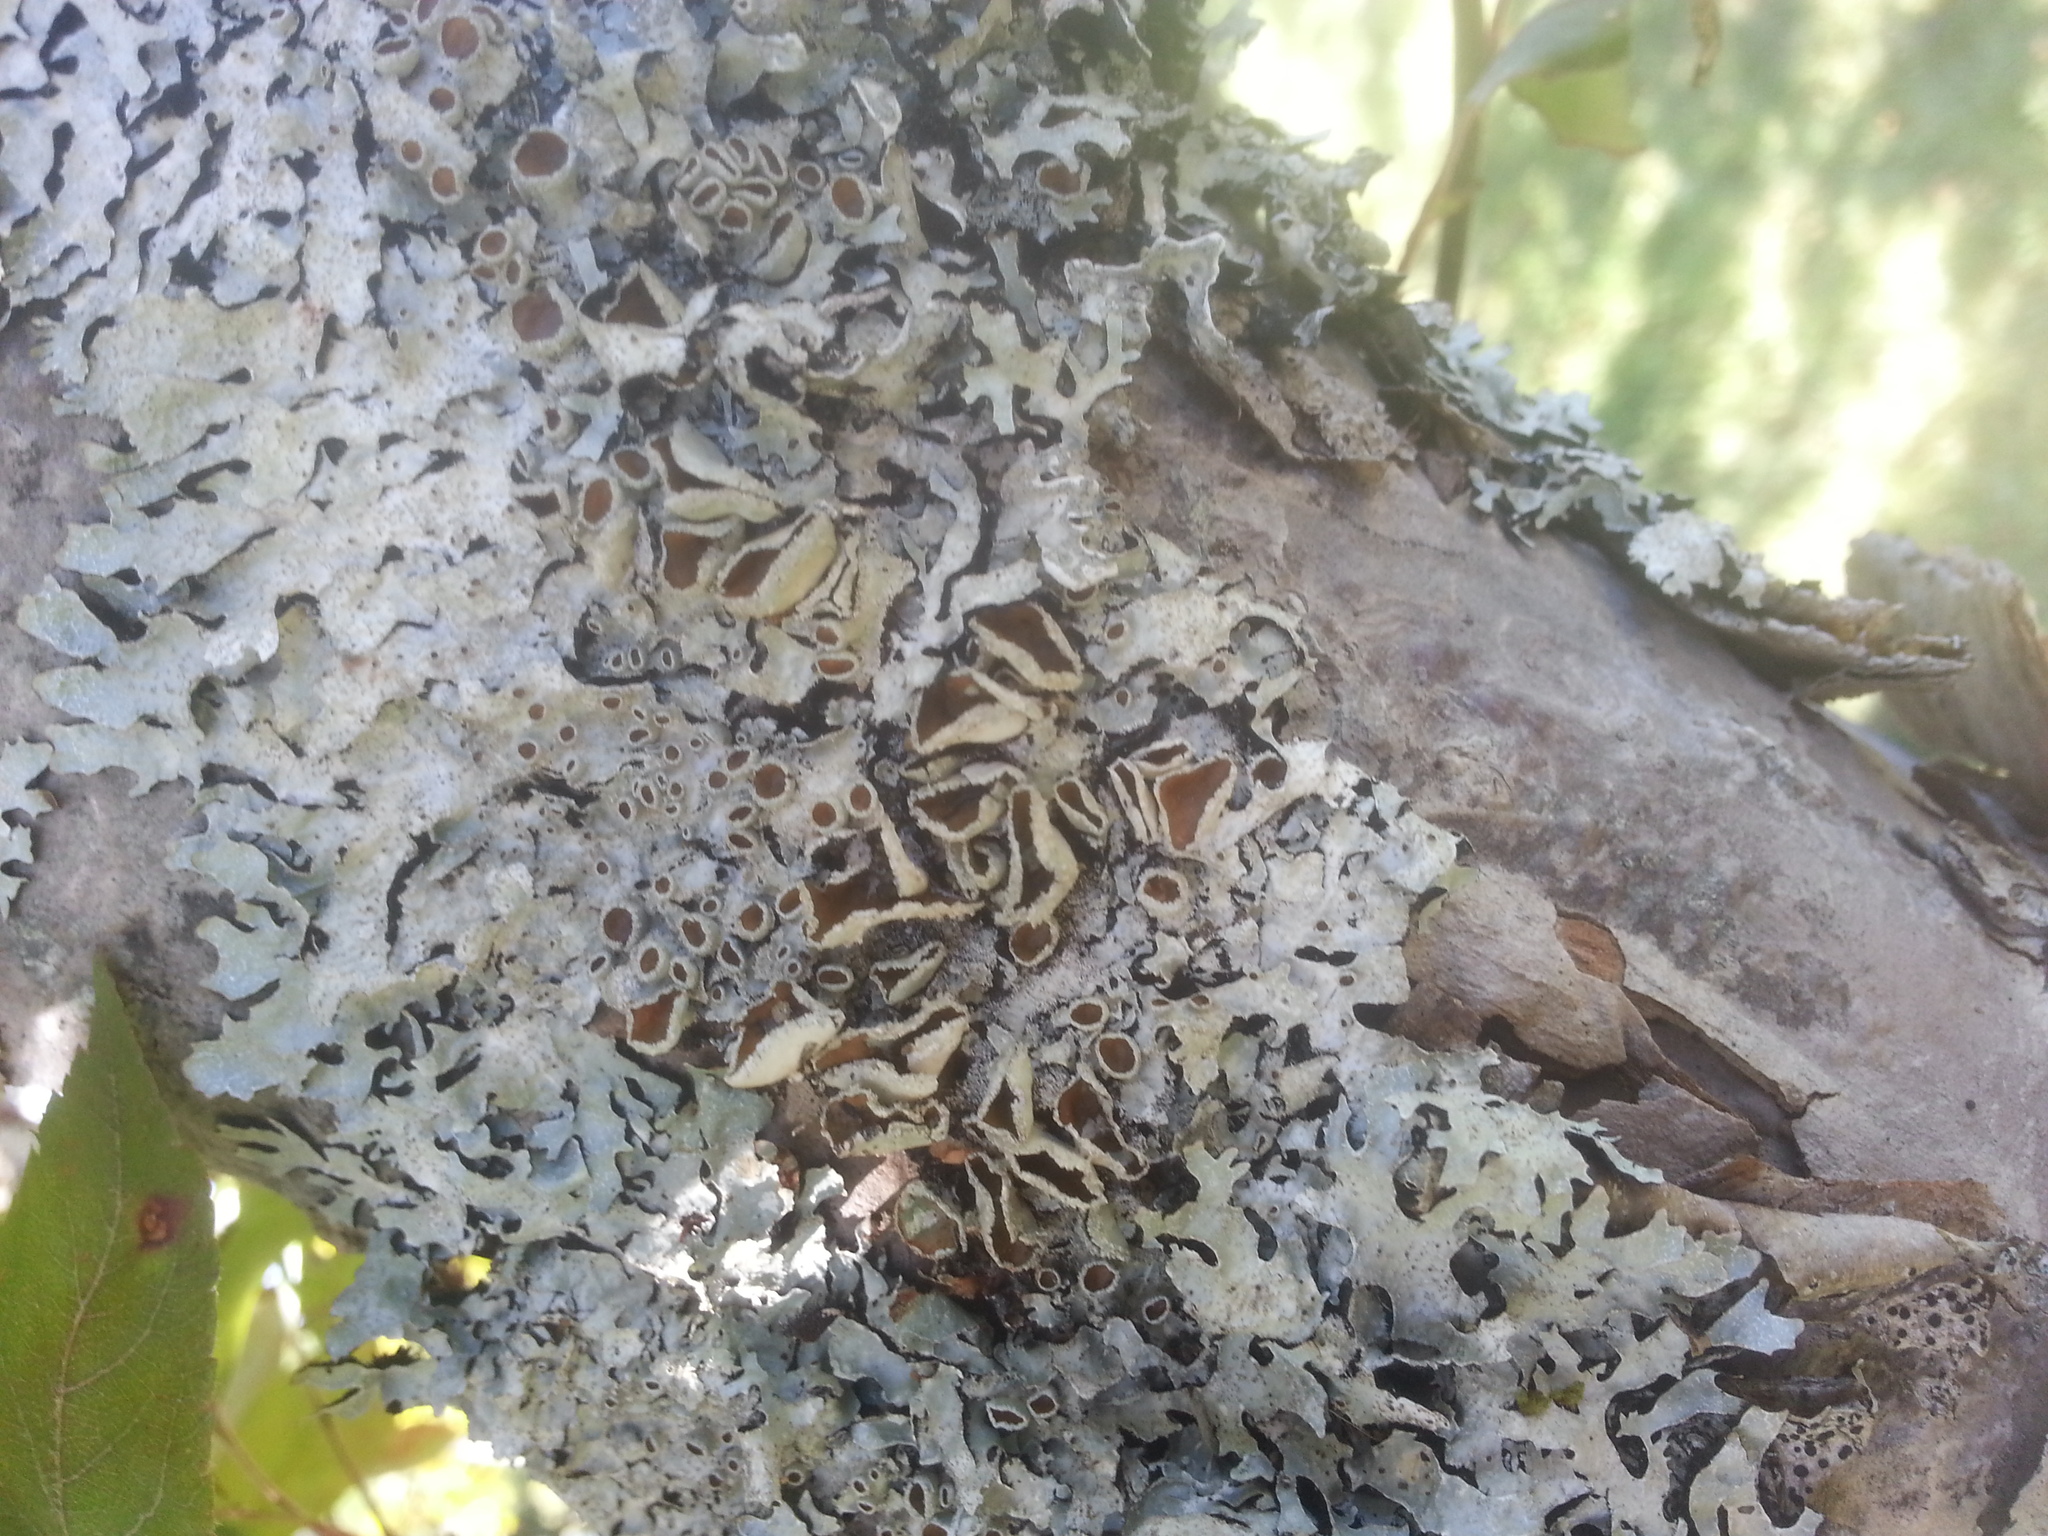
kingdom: Fungi
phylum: Ascomycota
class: Lecanoromycetes
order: Lecanorales
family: Parmeliaceae
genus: Parmelia
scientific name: Parmelia squarrosa
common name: Bottle brush shield lichen
